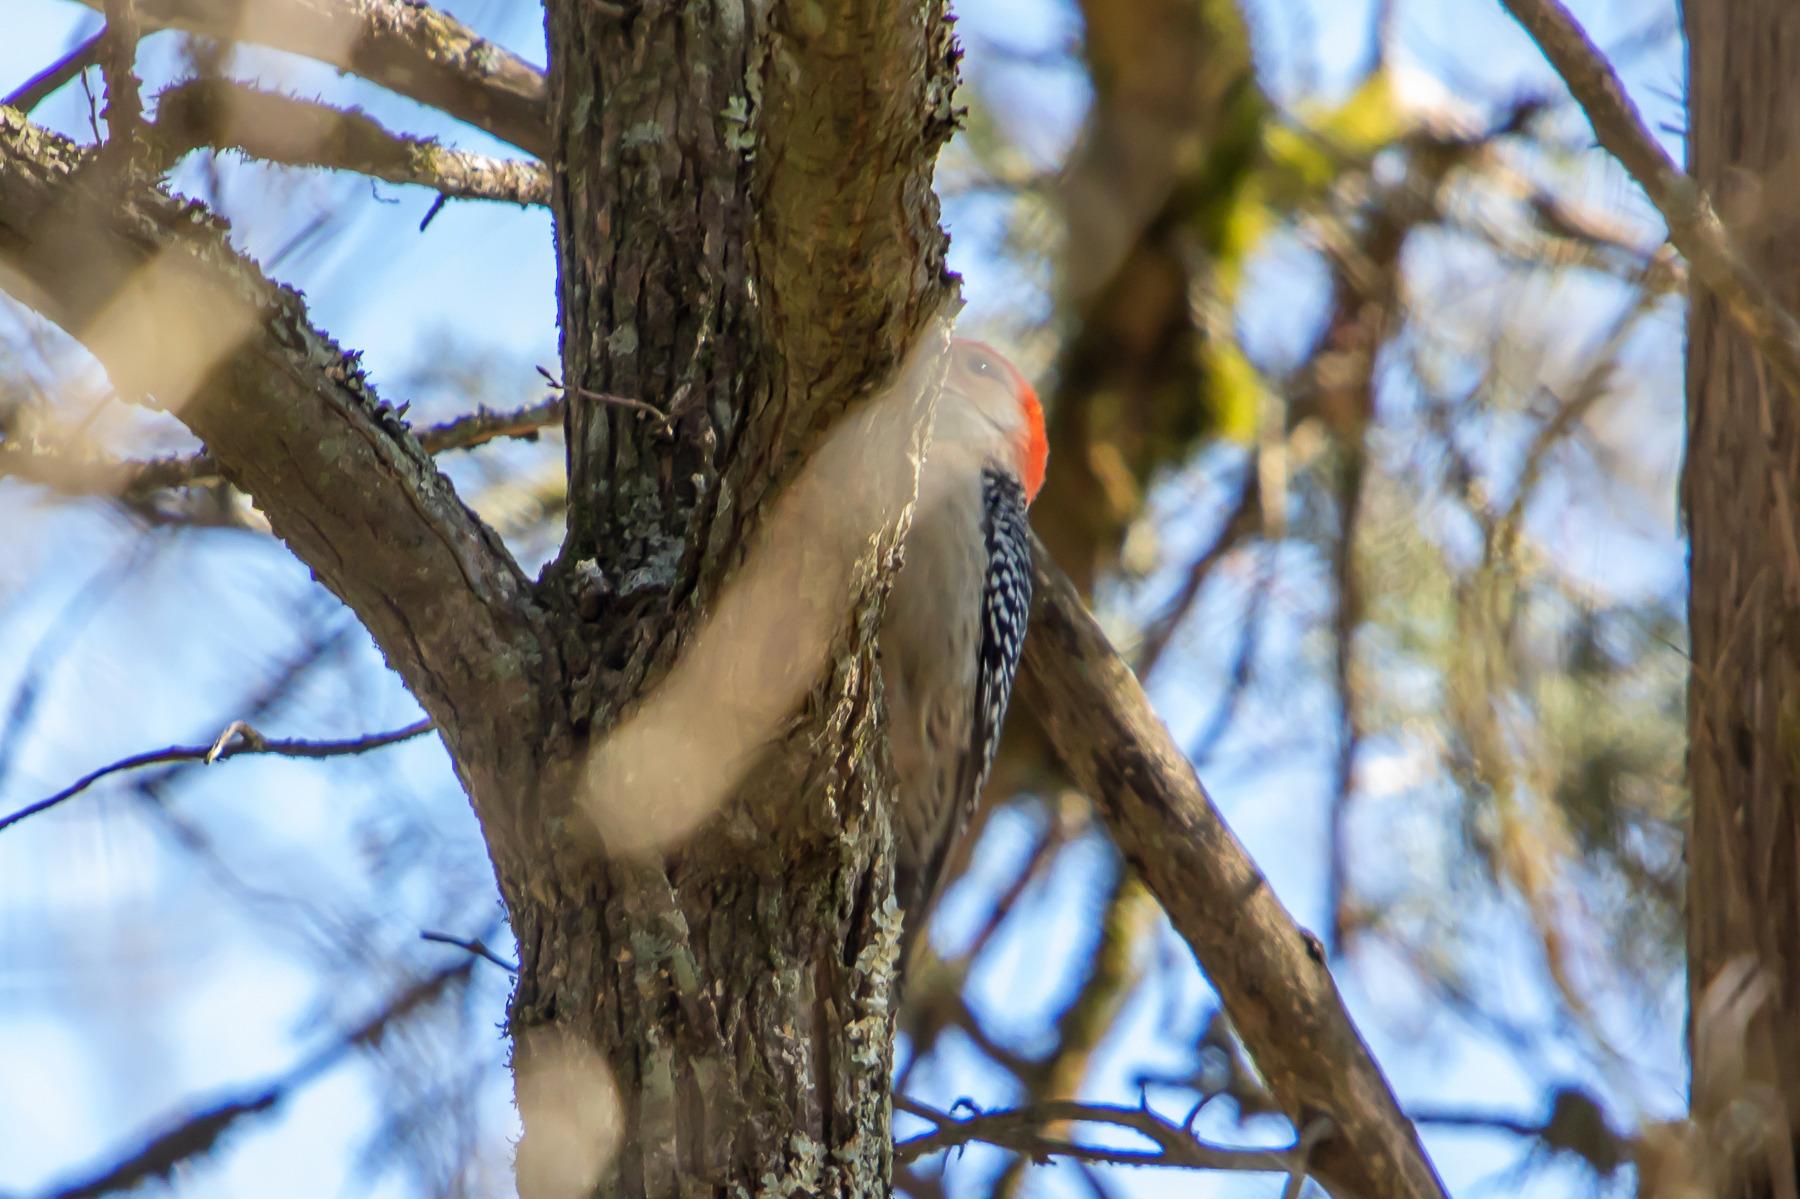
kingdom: Animalia
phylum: Chordata
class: Aves
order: Piciformes
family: Picidae
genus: Melanerpes
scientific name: Melanerpes carolinus
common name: Red-bellied woodpecker
